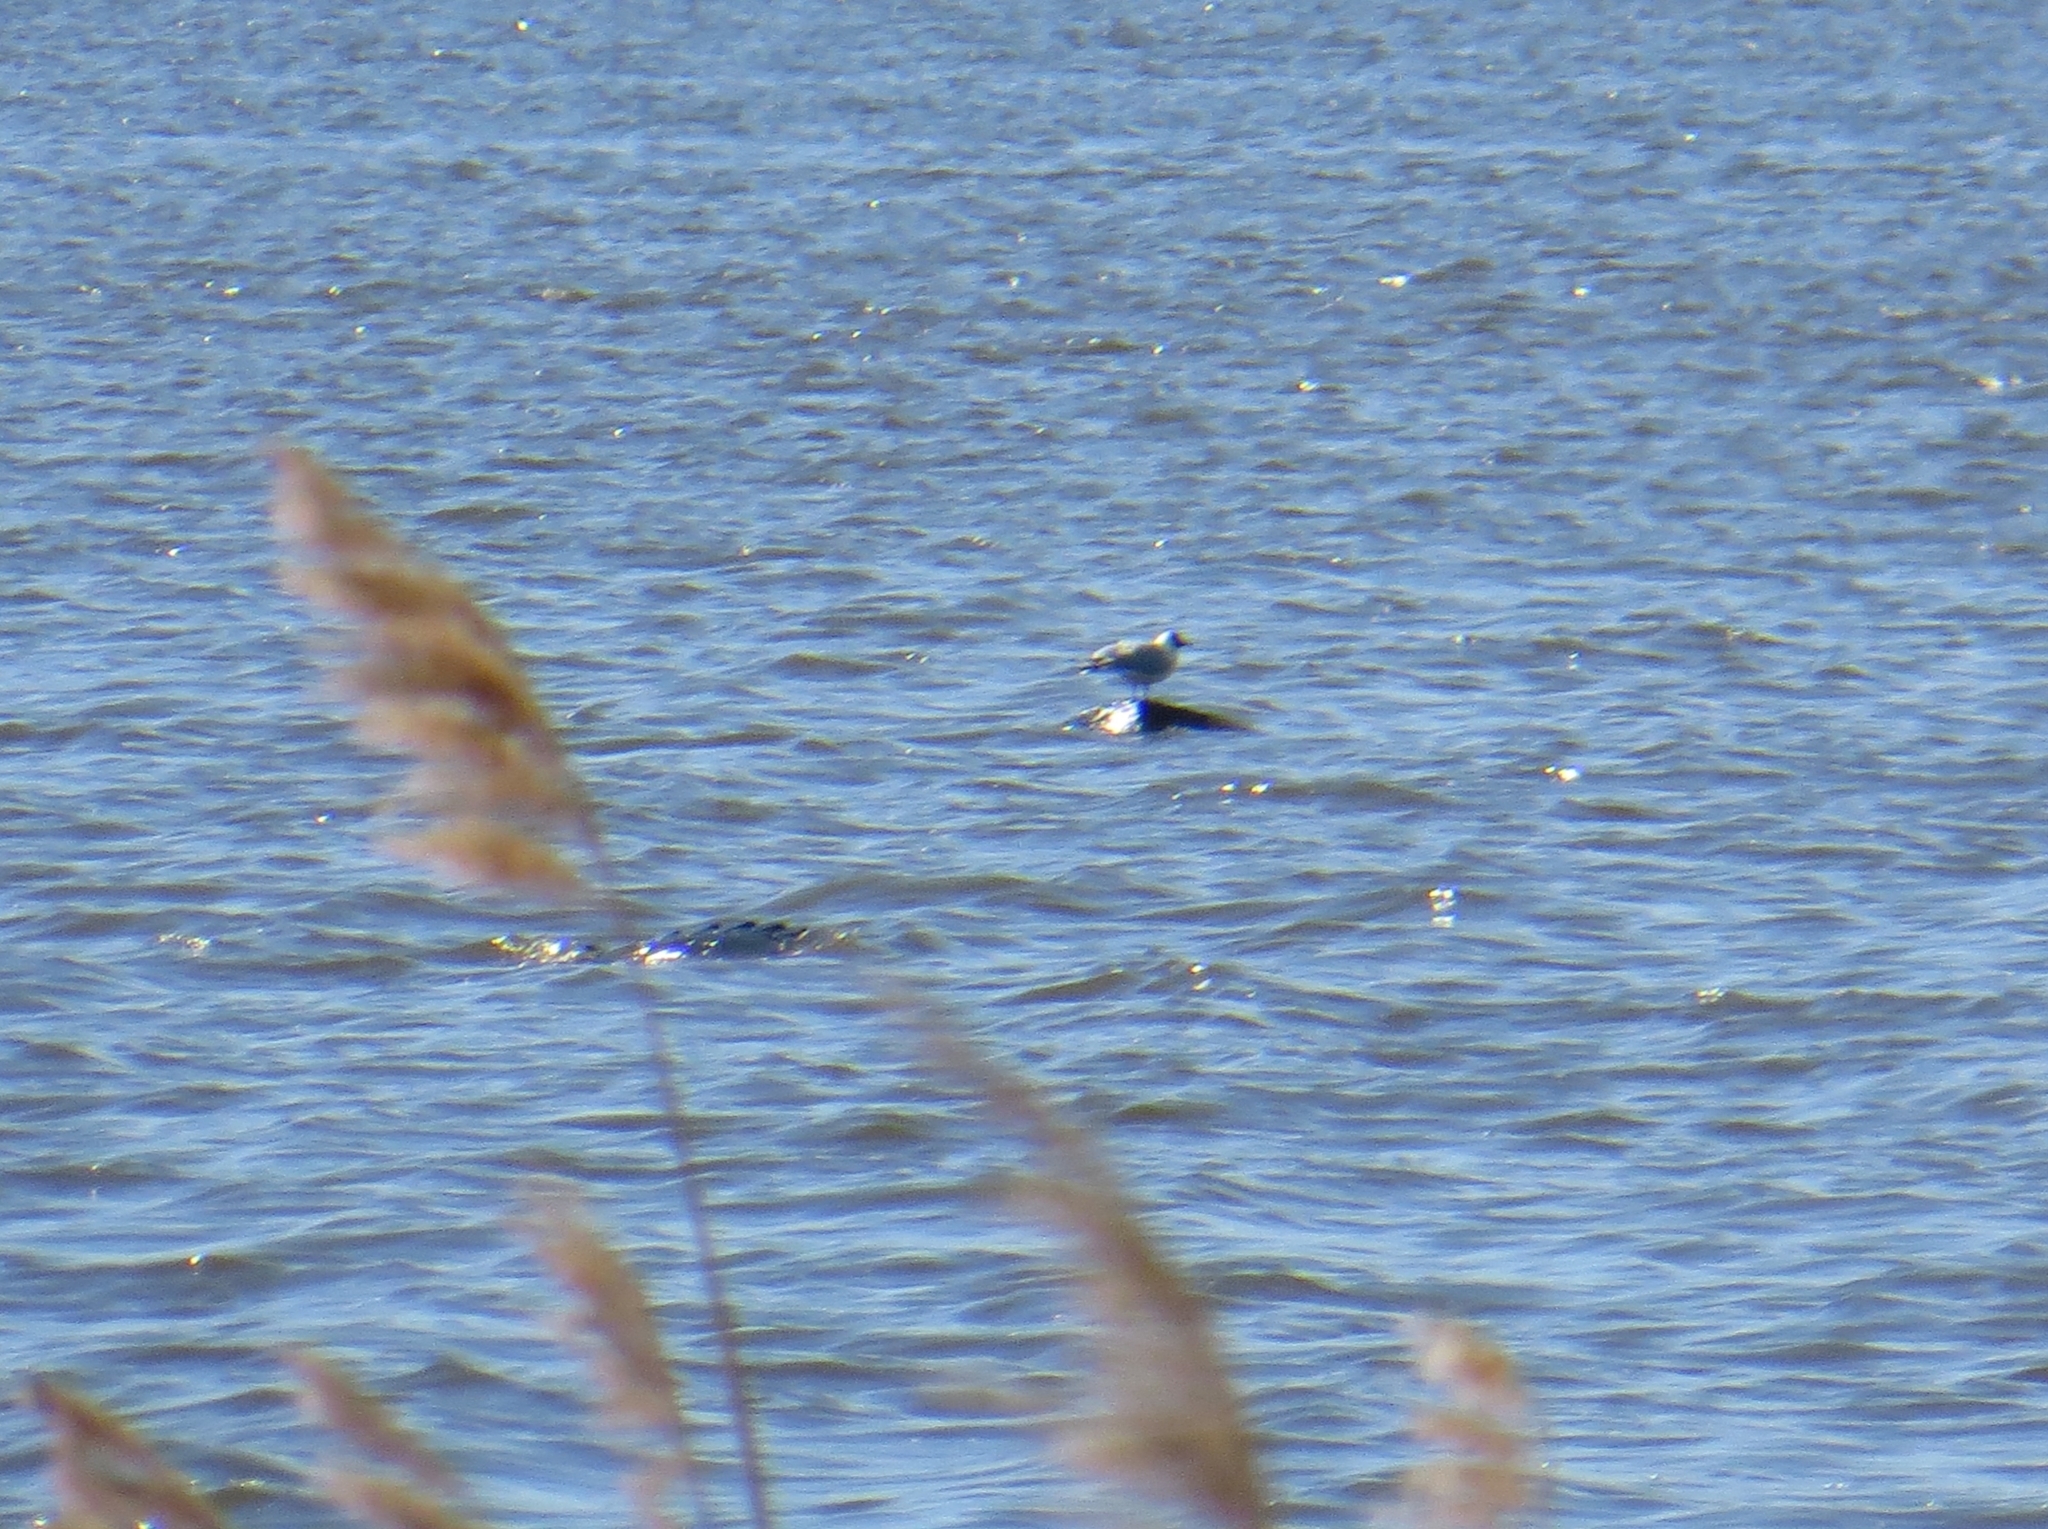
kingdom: Animalia
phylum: Chordata
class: Aves
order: Charadriiformes
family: Laridae
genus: Chroicocephalus
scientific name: Chroicocephalus ridibundus
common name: Black-headed gull
